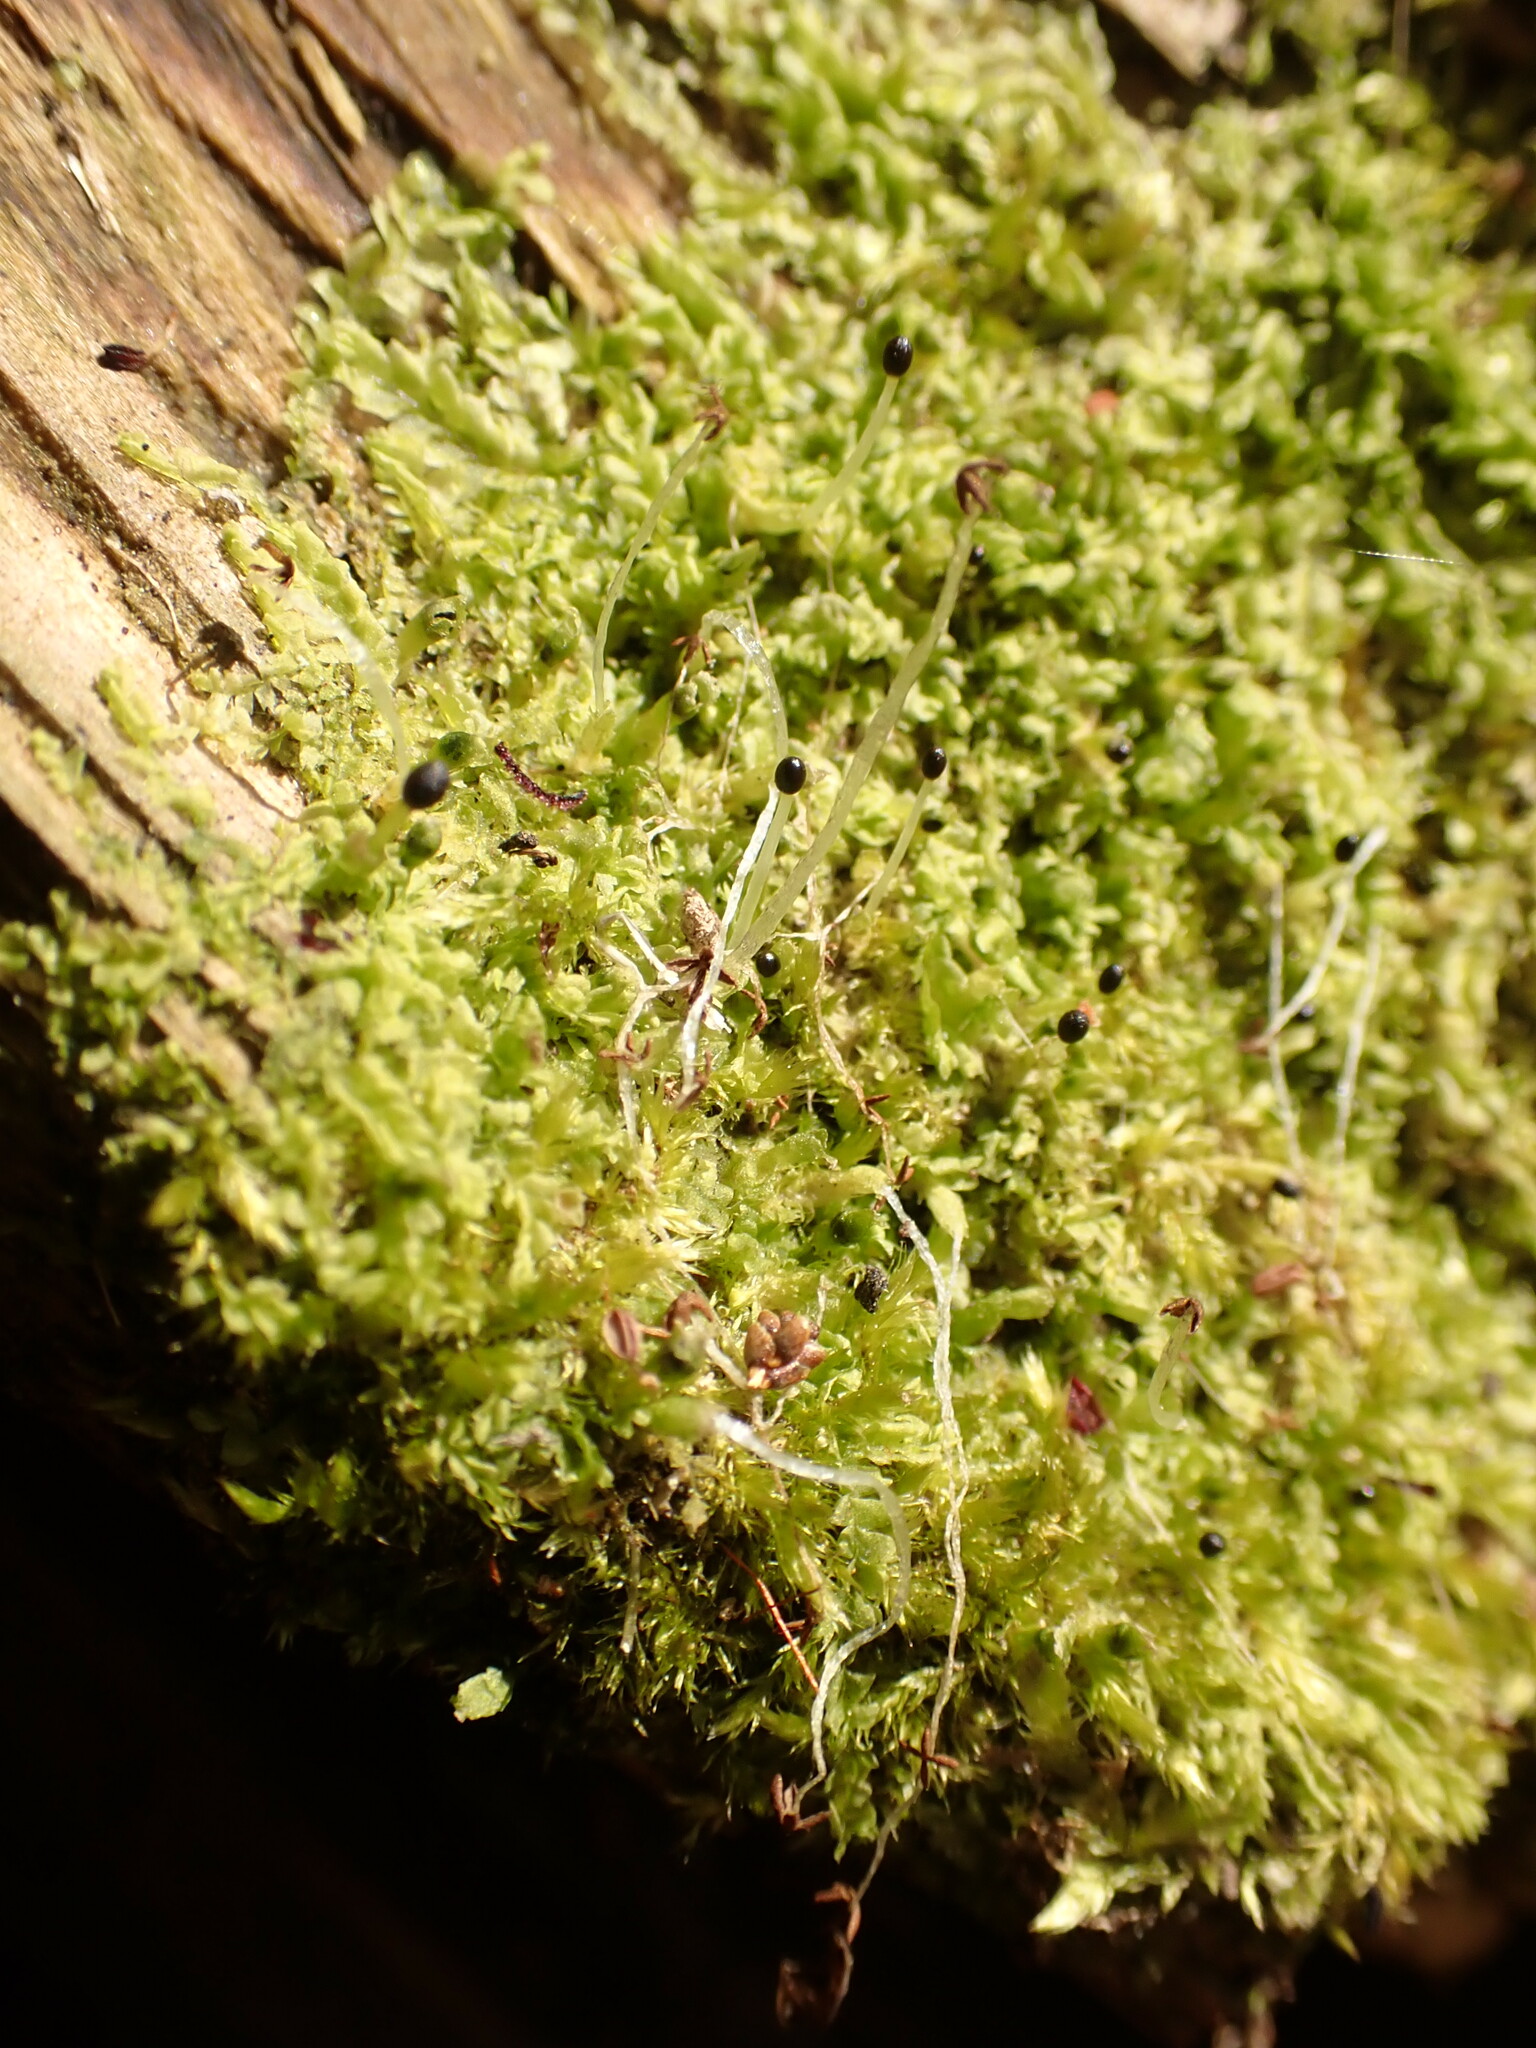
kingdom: Plantae
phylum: Marchantiophyta
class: Jungermanniopsida
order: Jungermanniales
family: Lophocoleaceae
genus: Lophocolea
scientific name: Lophocolea heterophylla
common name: Variable-leaved crestwort
